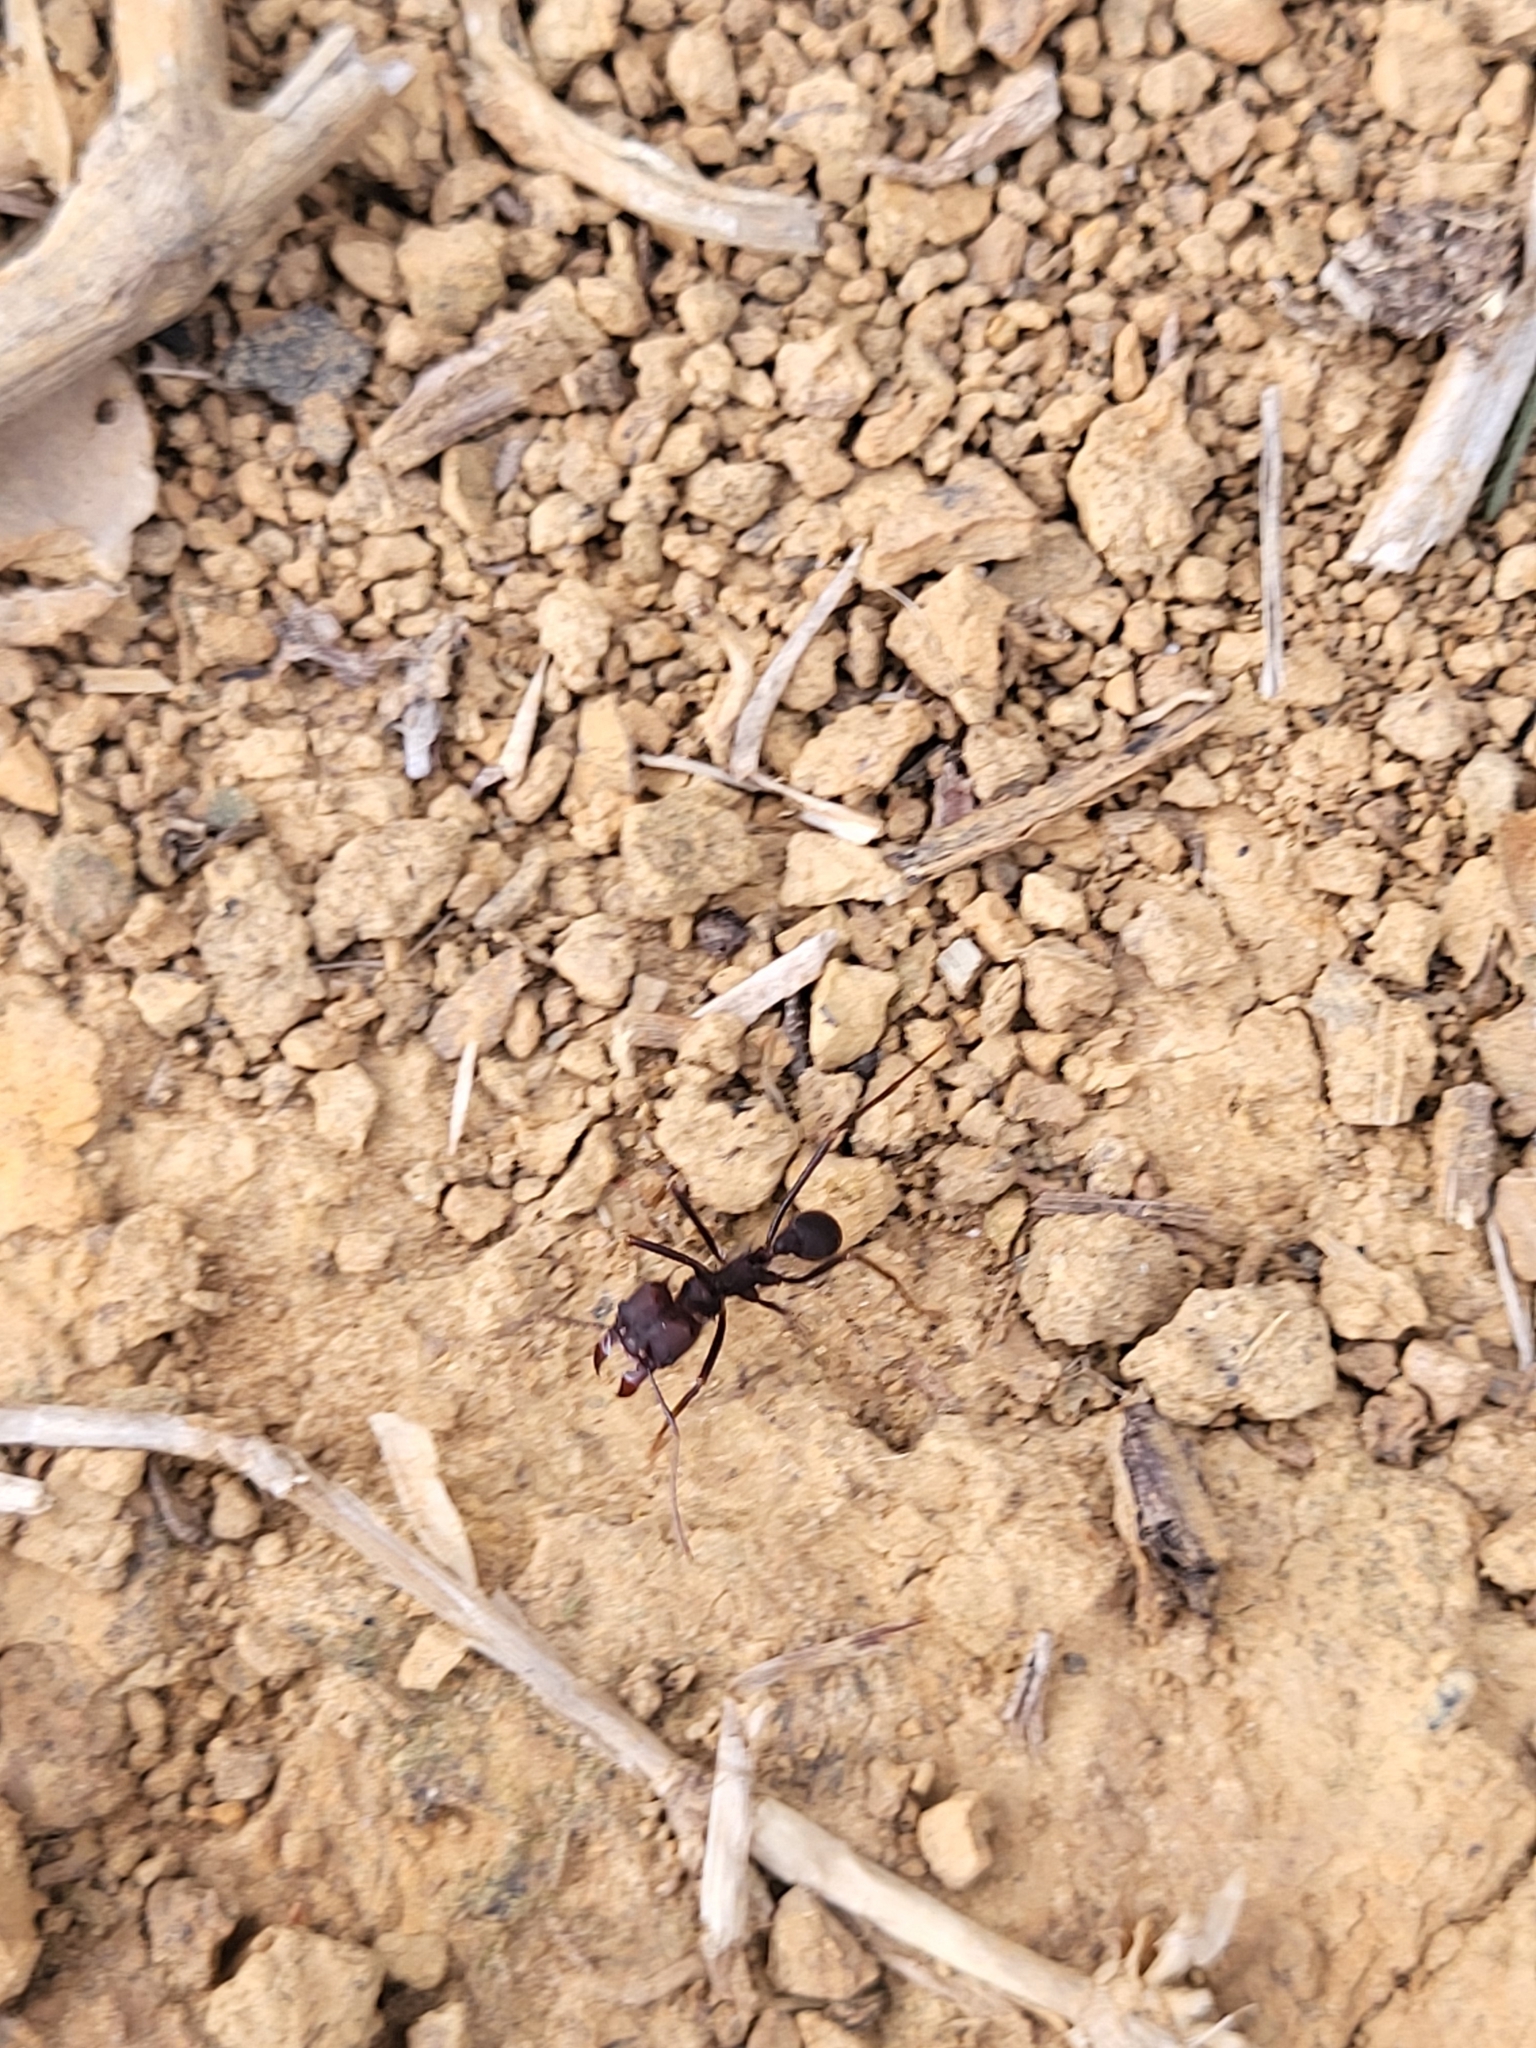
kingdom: Animalia
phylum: Arthropoda
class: Insecta
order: Hymenoptera
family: Formicidae
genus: Atta
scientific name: Atta insularis
